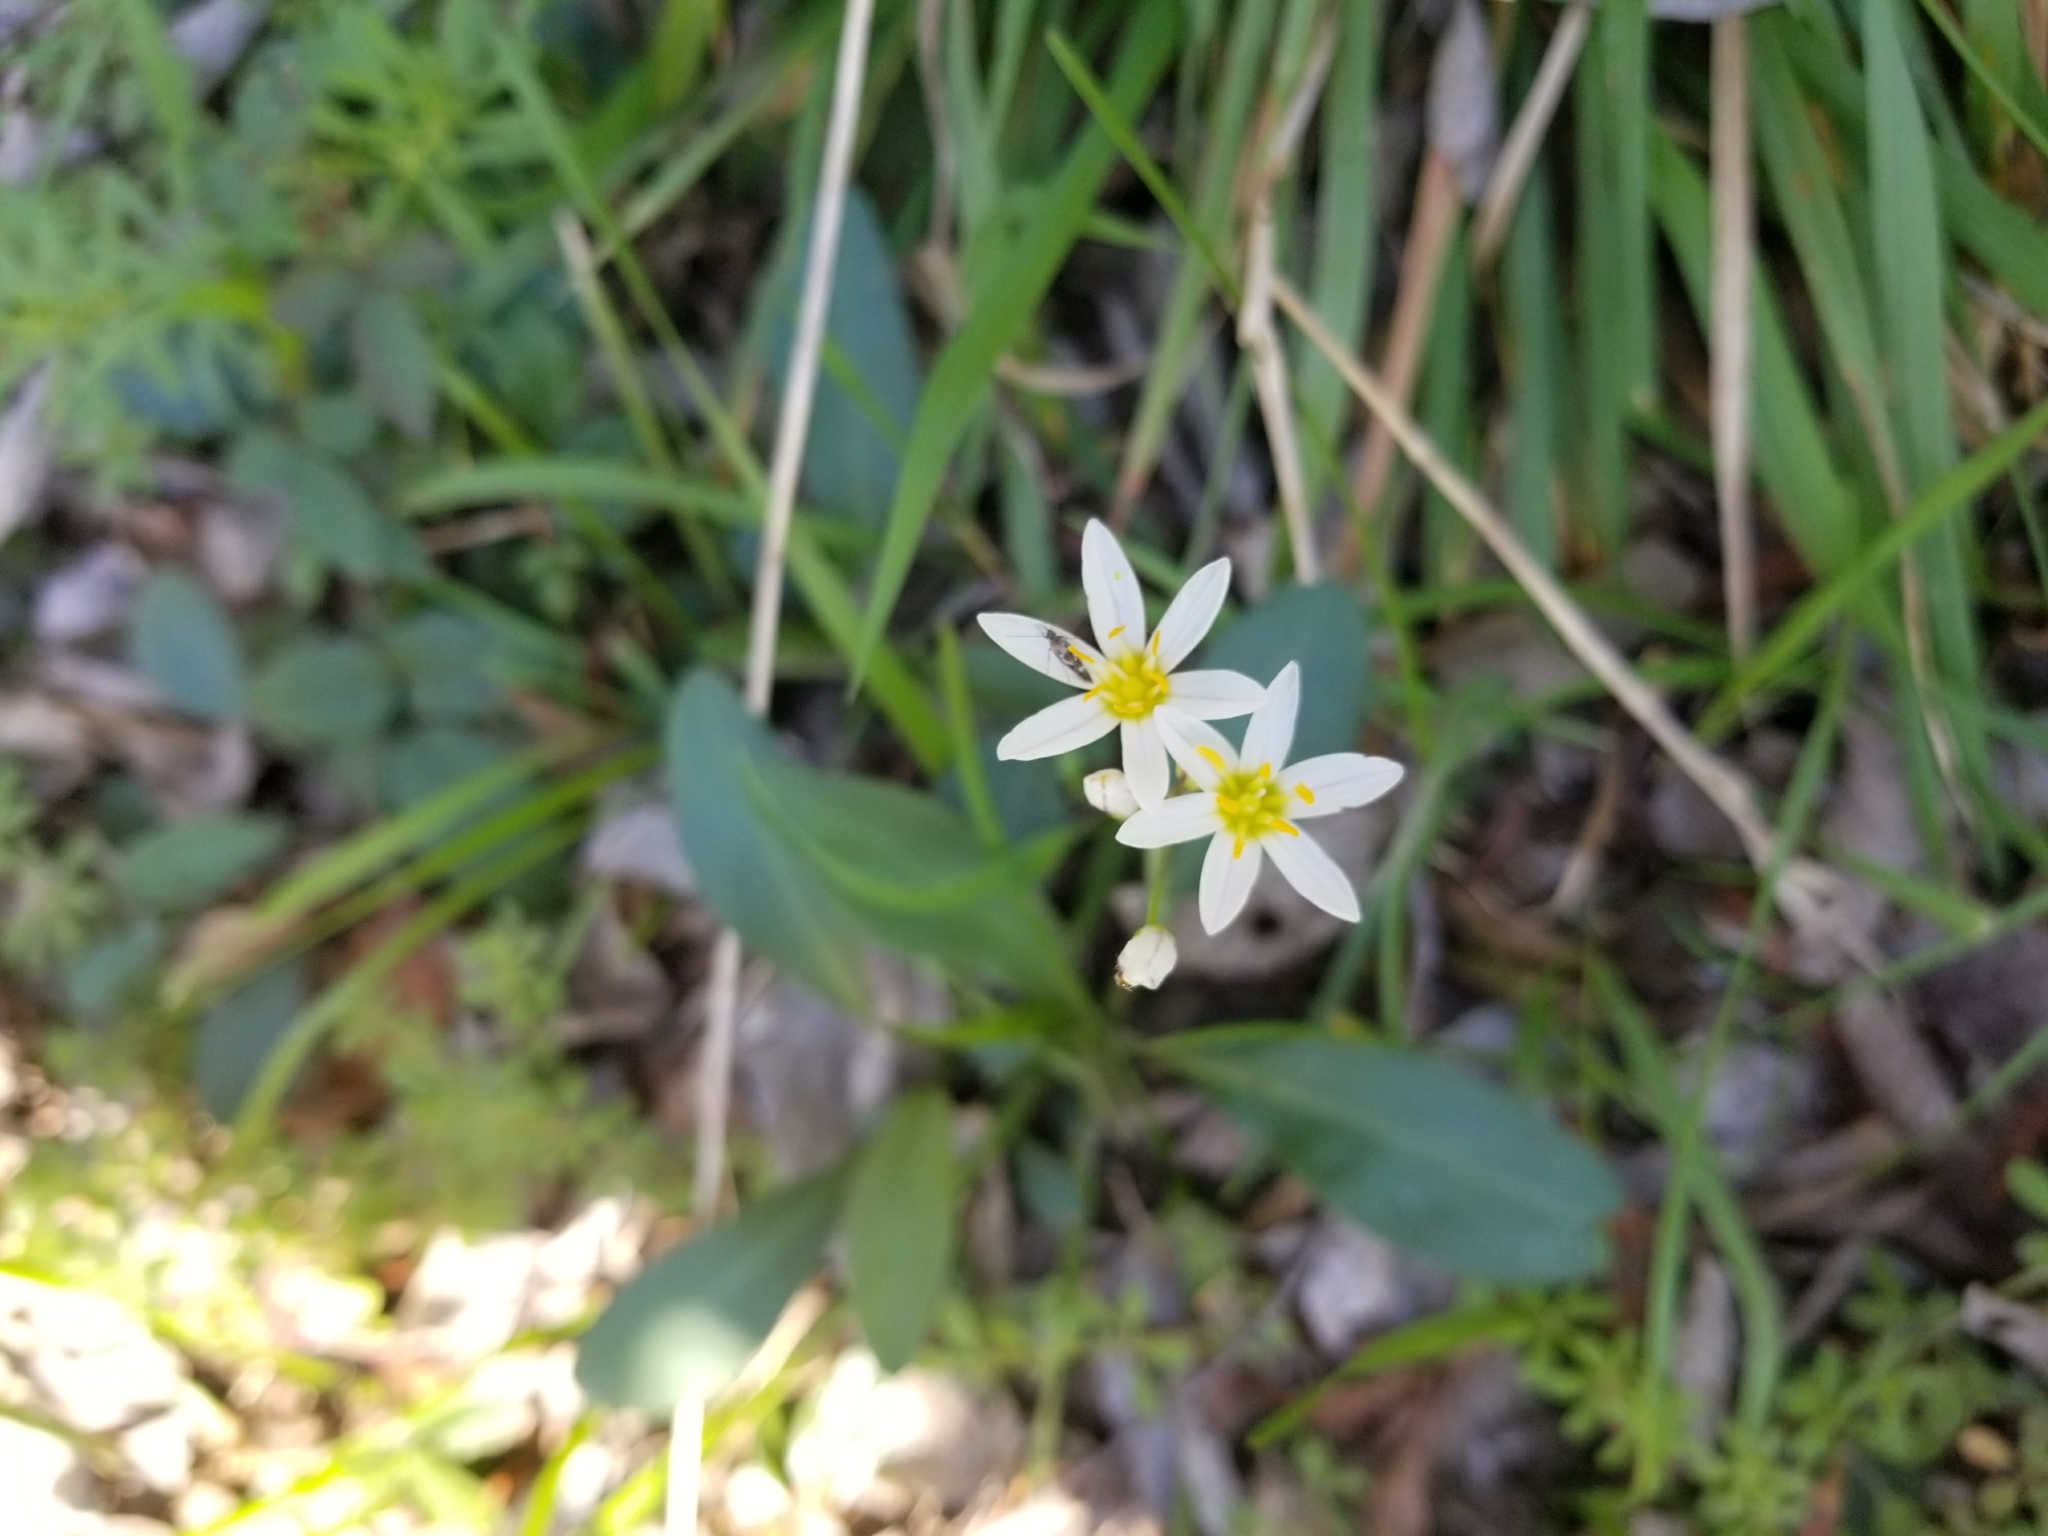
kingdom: Plantae
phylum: Tracheophyta
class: Liliopsida
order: Asparagales
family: Amaryllidaceae
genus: Nothoscordum
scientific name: Nothoscordum bivalve
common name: Crow-poison
